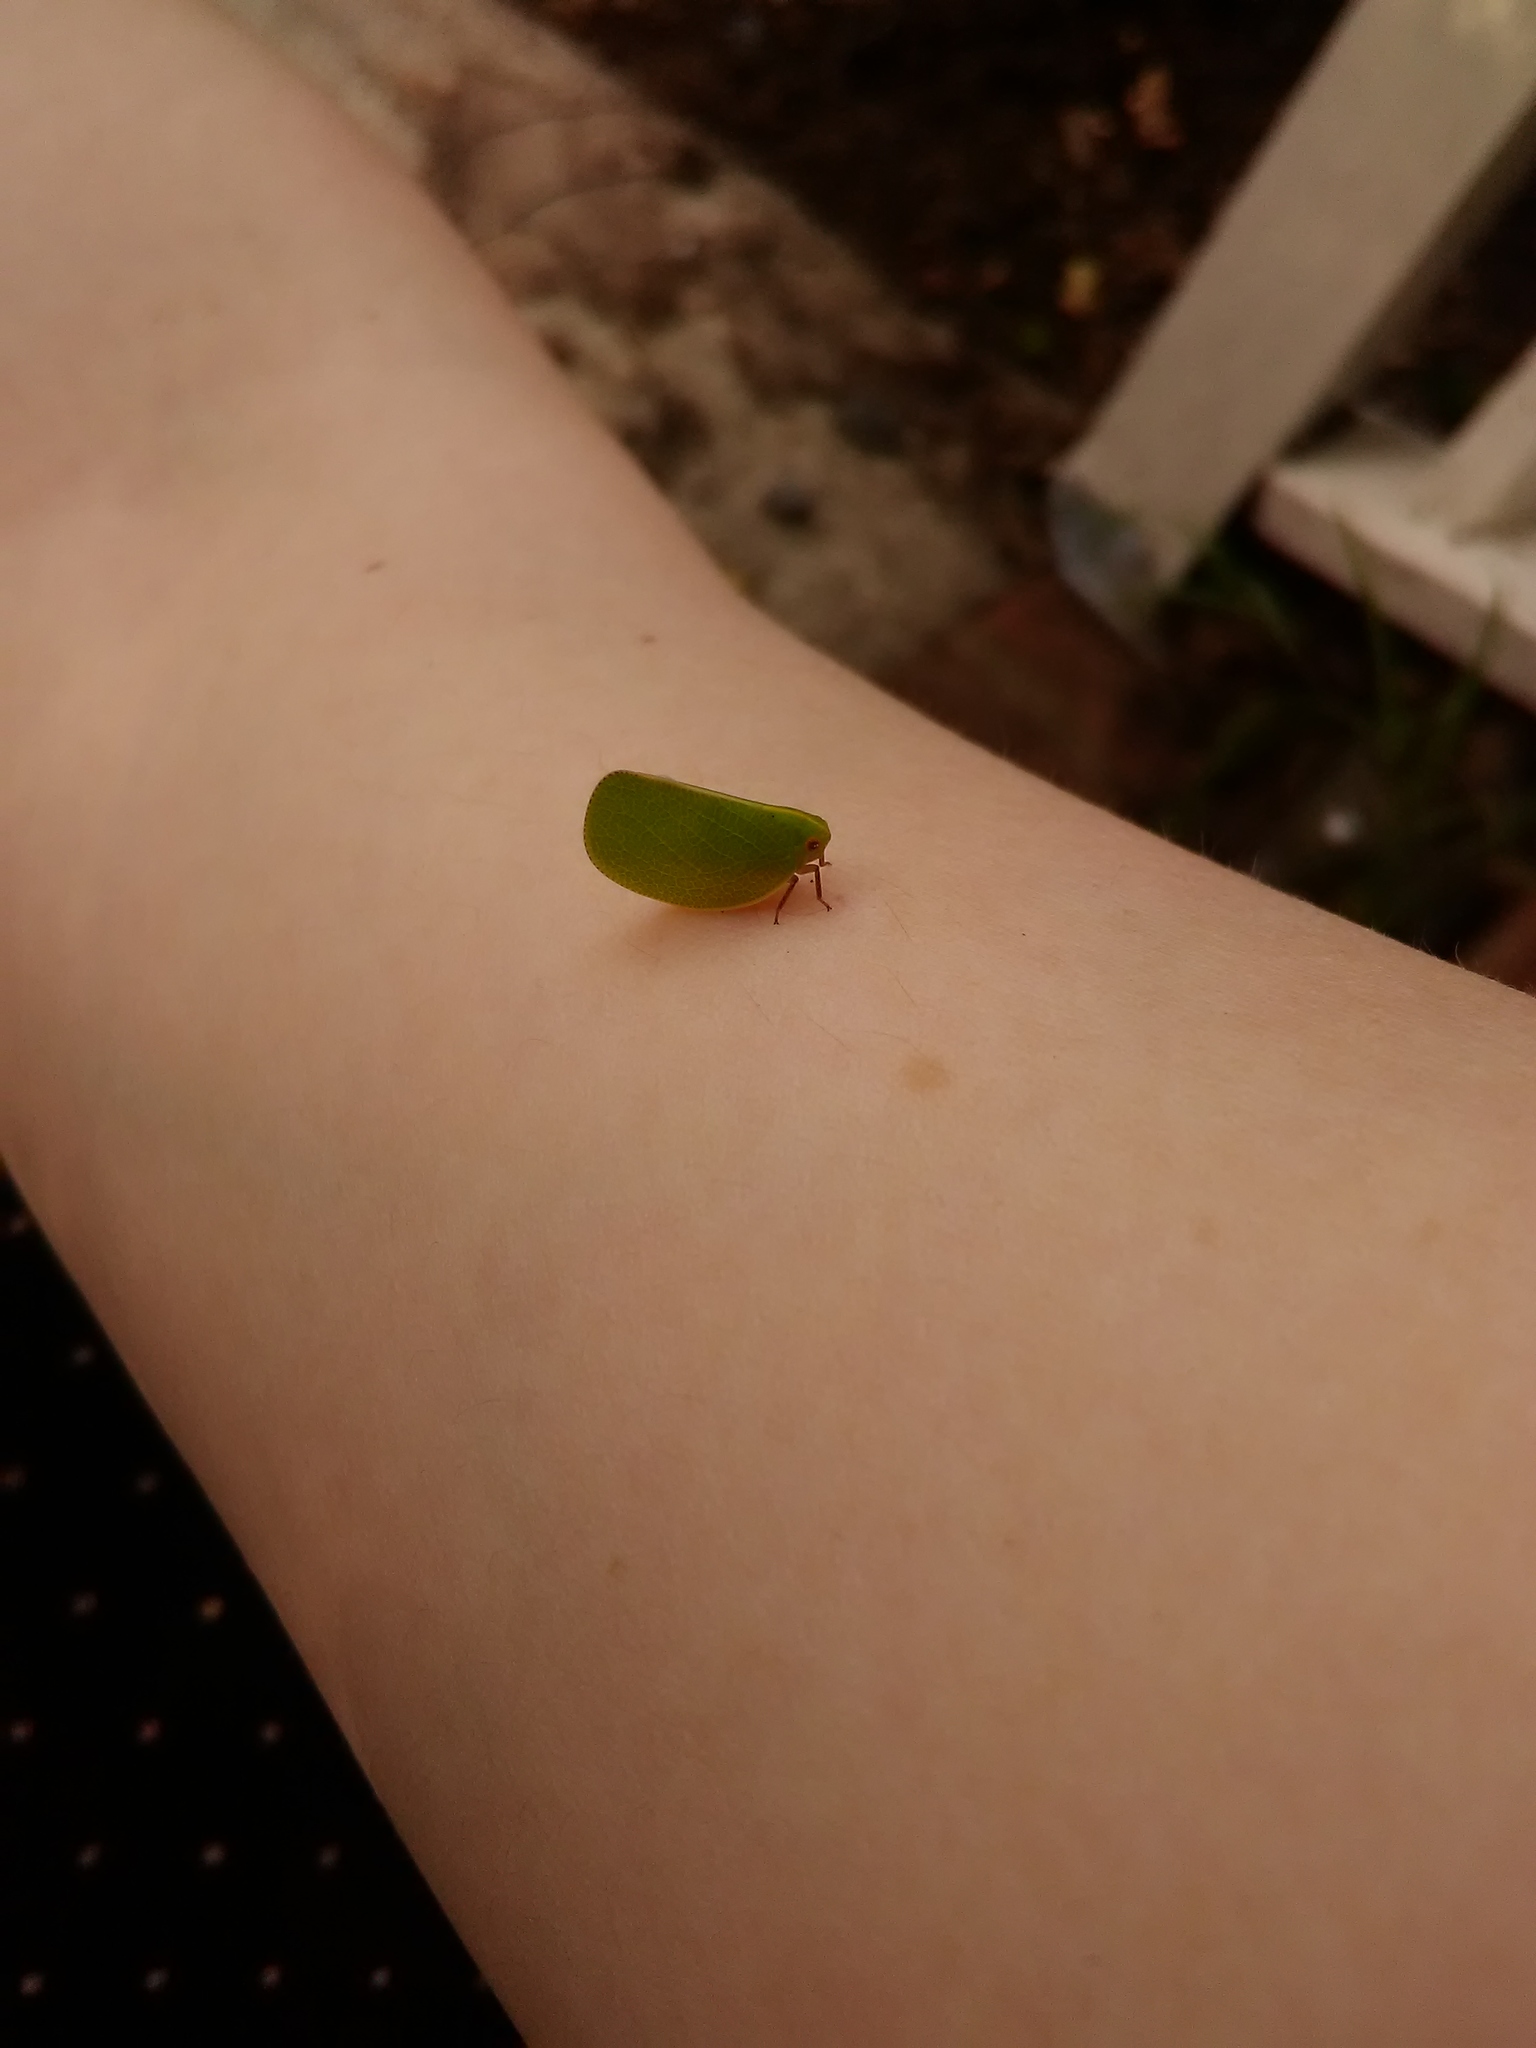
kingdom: Animalia
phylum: Arthropoda
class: Insecta
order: Hemiptera
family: Acanaloniidae
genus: Acanalonia
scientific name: Acanalonia servillei
